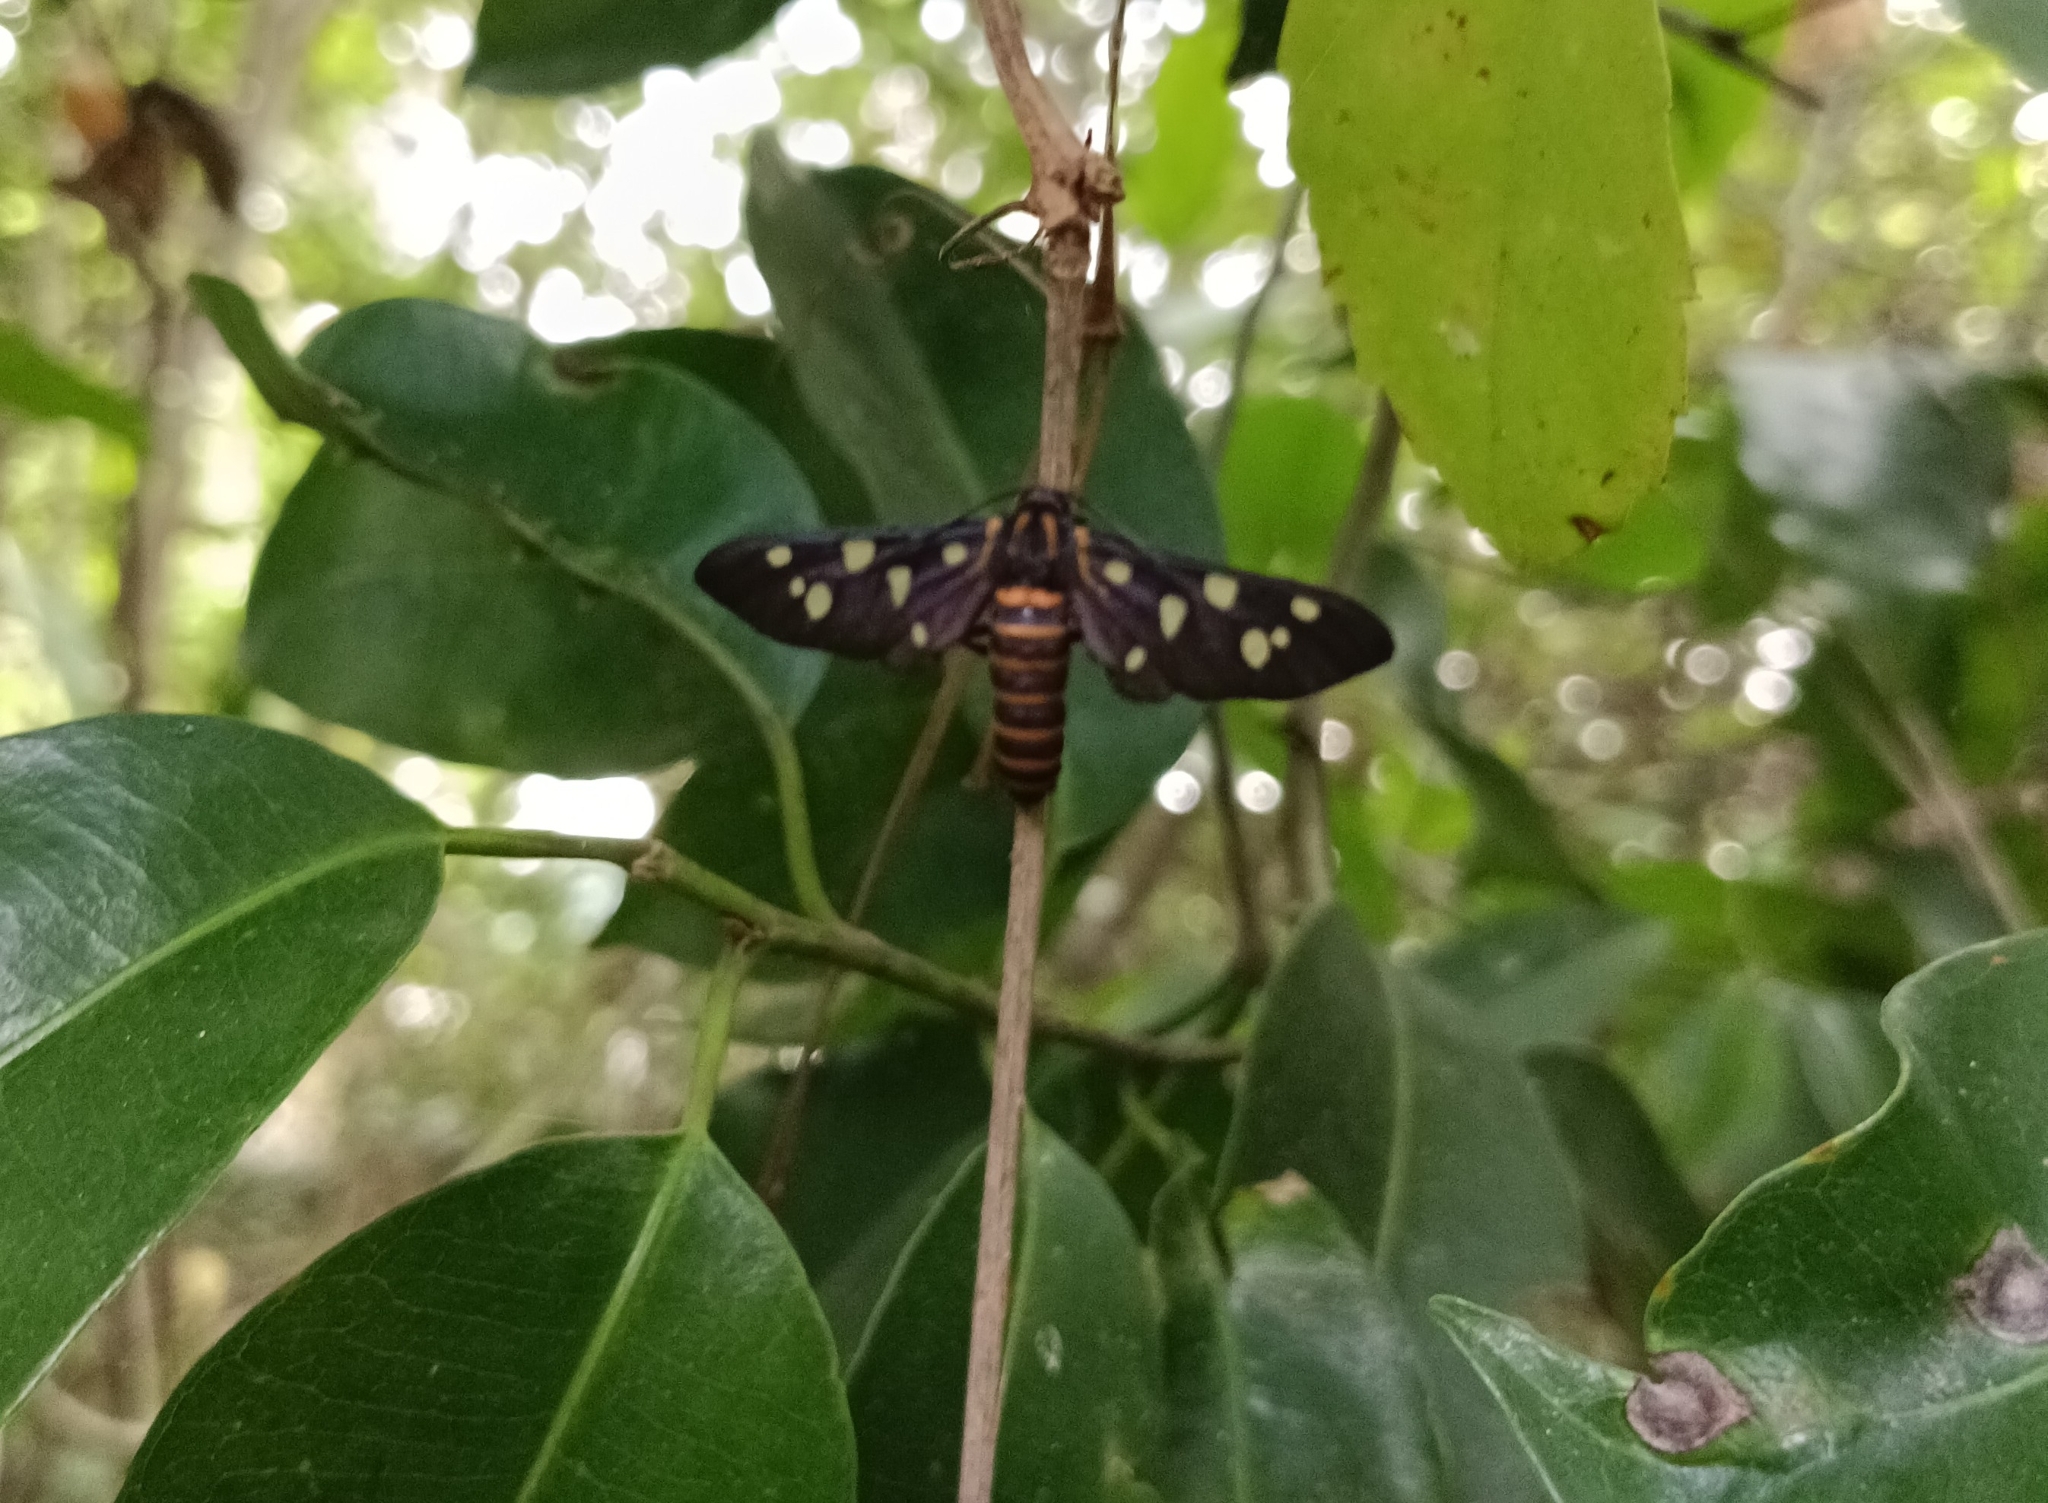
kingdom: Animalia
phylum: Arthropoda
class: Insecta
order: Lepidoptera
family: Erebidae
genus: Amata
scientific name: Amata passalis
